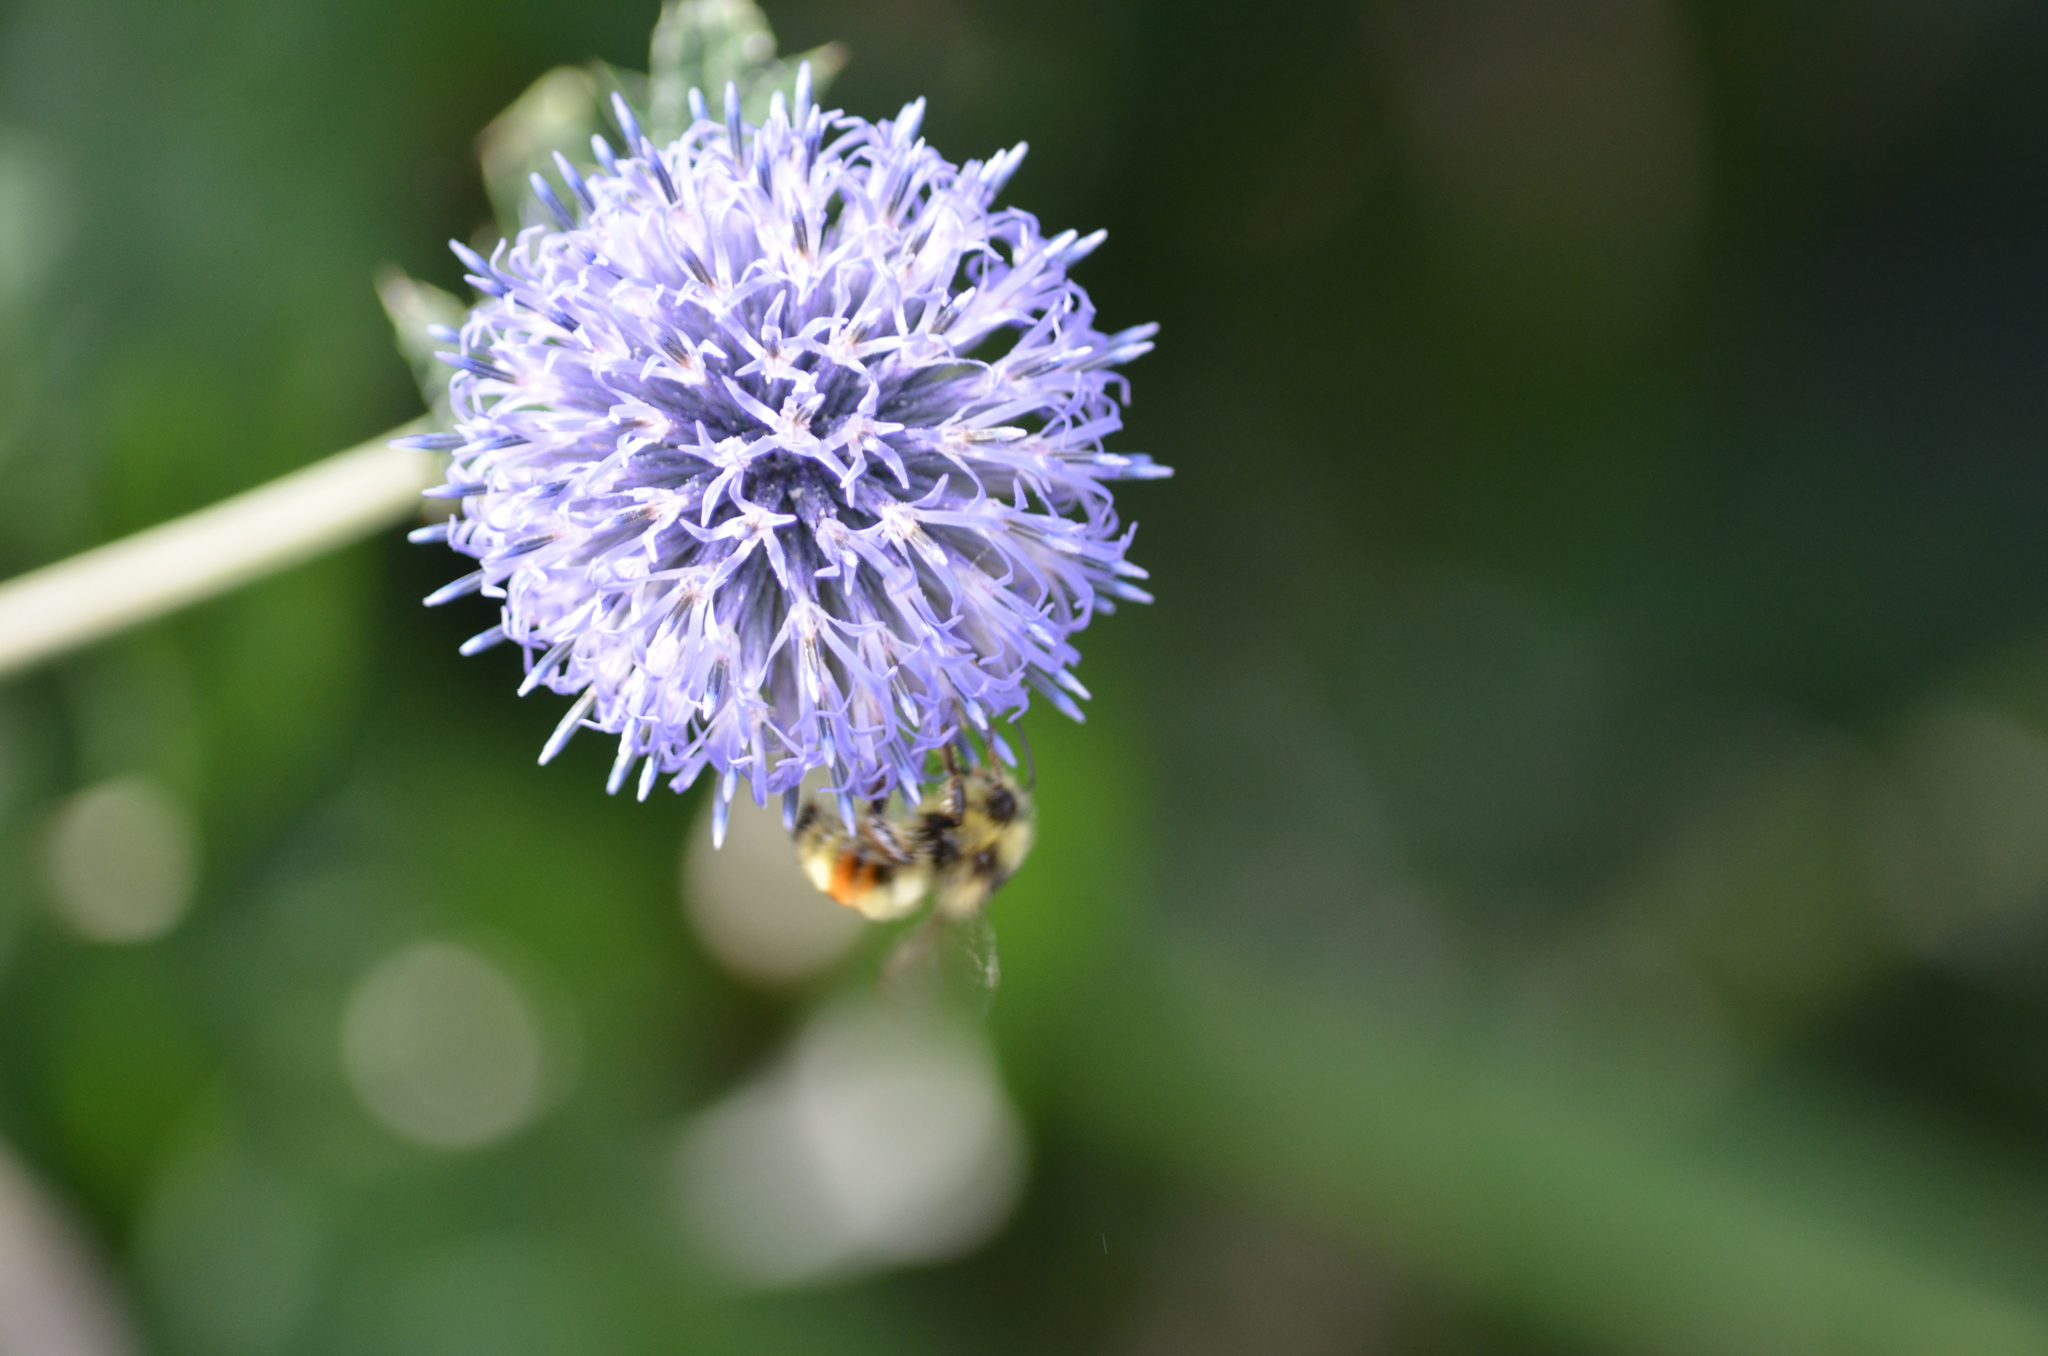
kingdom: Animalia
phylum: Arthropoda
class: Insecta
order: Hymenoptera
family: Apidae
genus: Bombus
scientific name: Bombus vancouverensis
